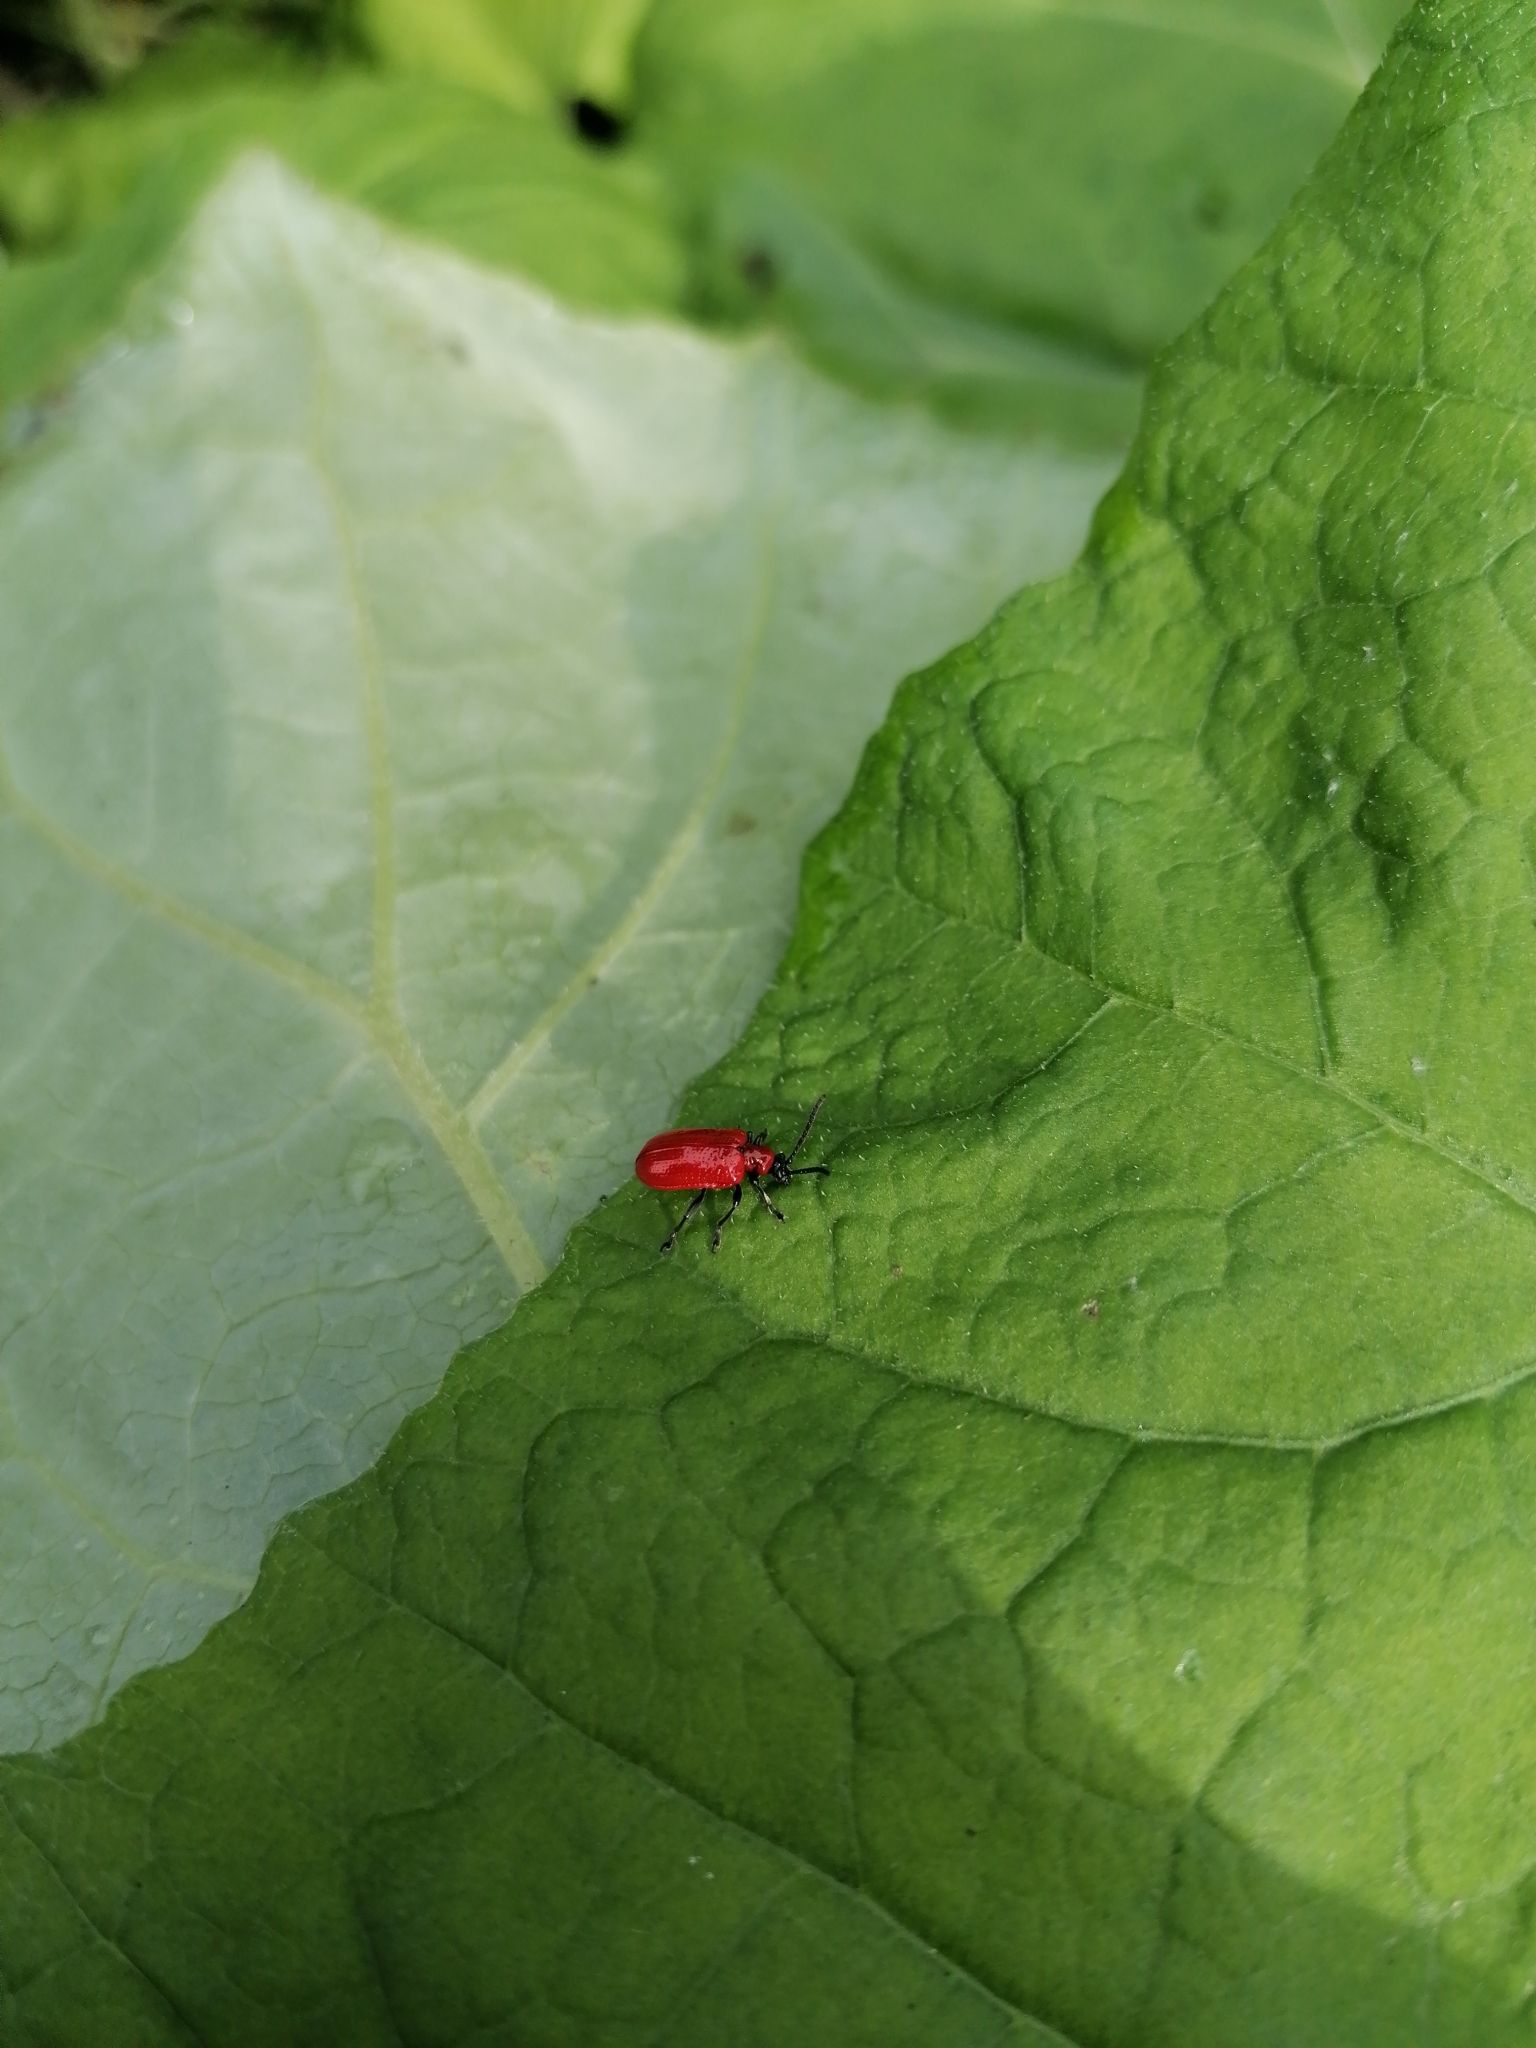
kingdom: Animalia
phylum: Arthropoda
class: Insecta
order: Coleoptera
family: Chrysomelidae
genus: Lilioceris
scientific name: Lilioceris lilii
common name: Lily beetle
